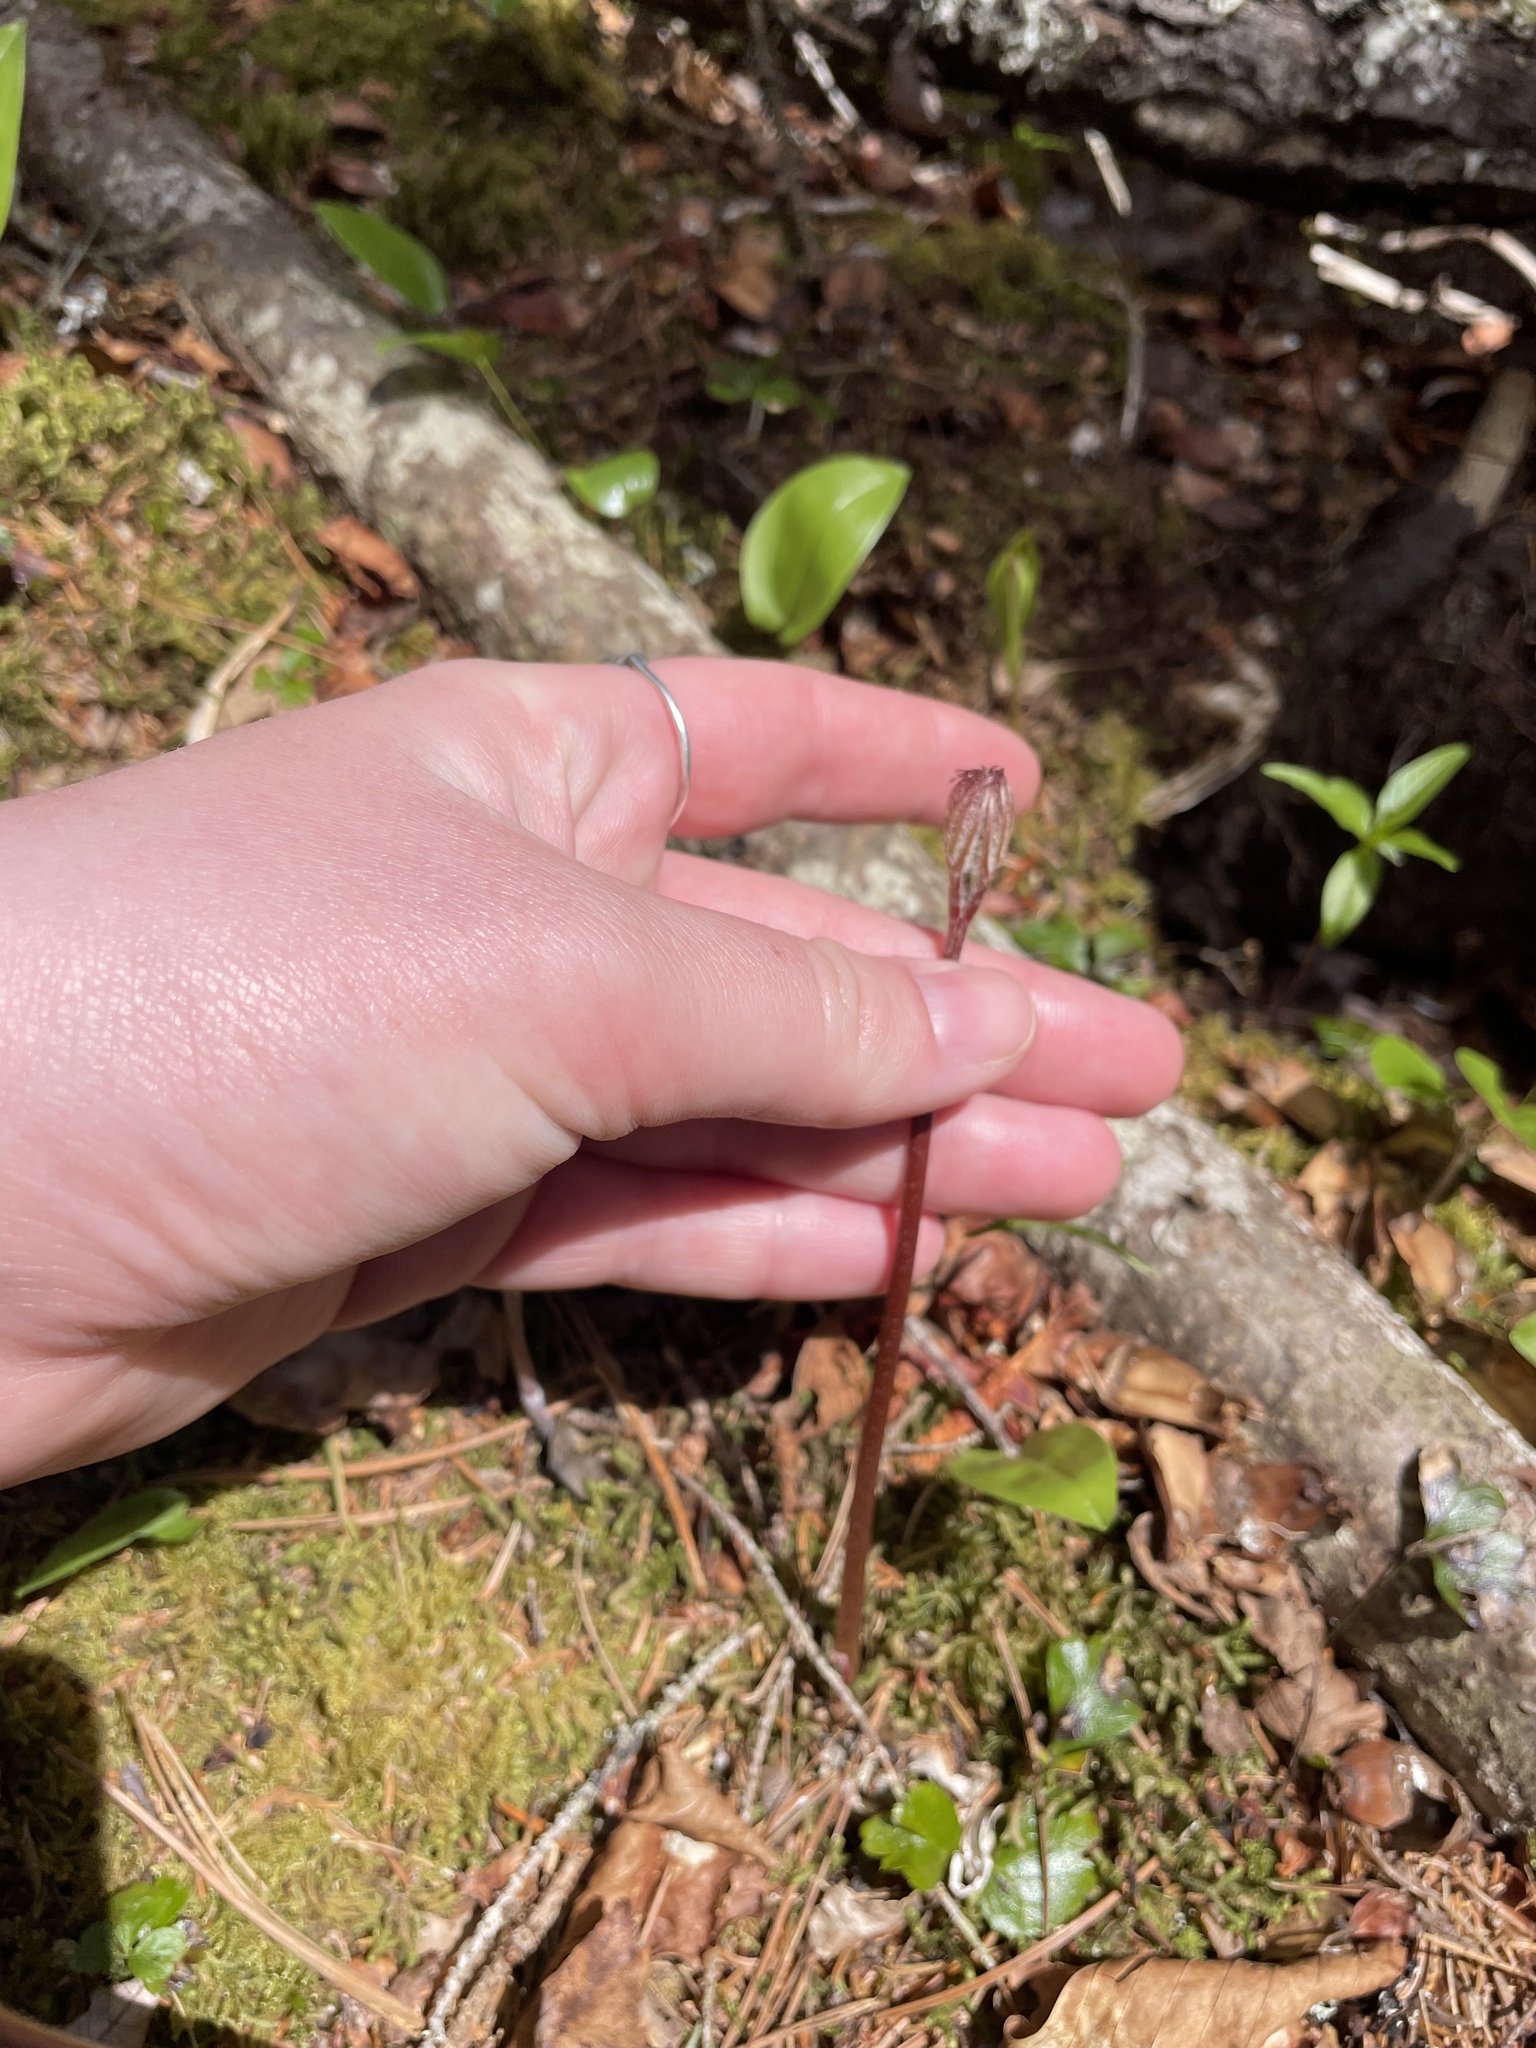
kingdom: Plantae
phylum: Tracheophyta
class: Magnoliopsida
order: Apiales
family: Araliaceae
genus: Aralia
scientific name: Aralia nudicaulis
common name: Wild sarsaparilla
